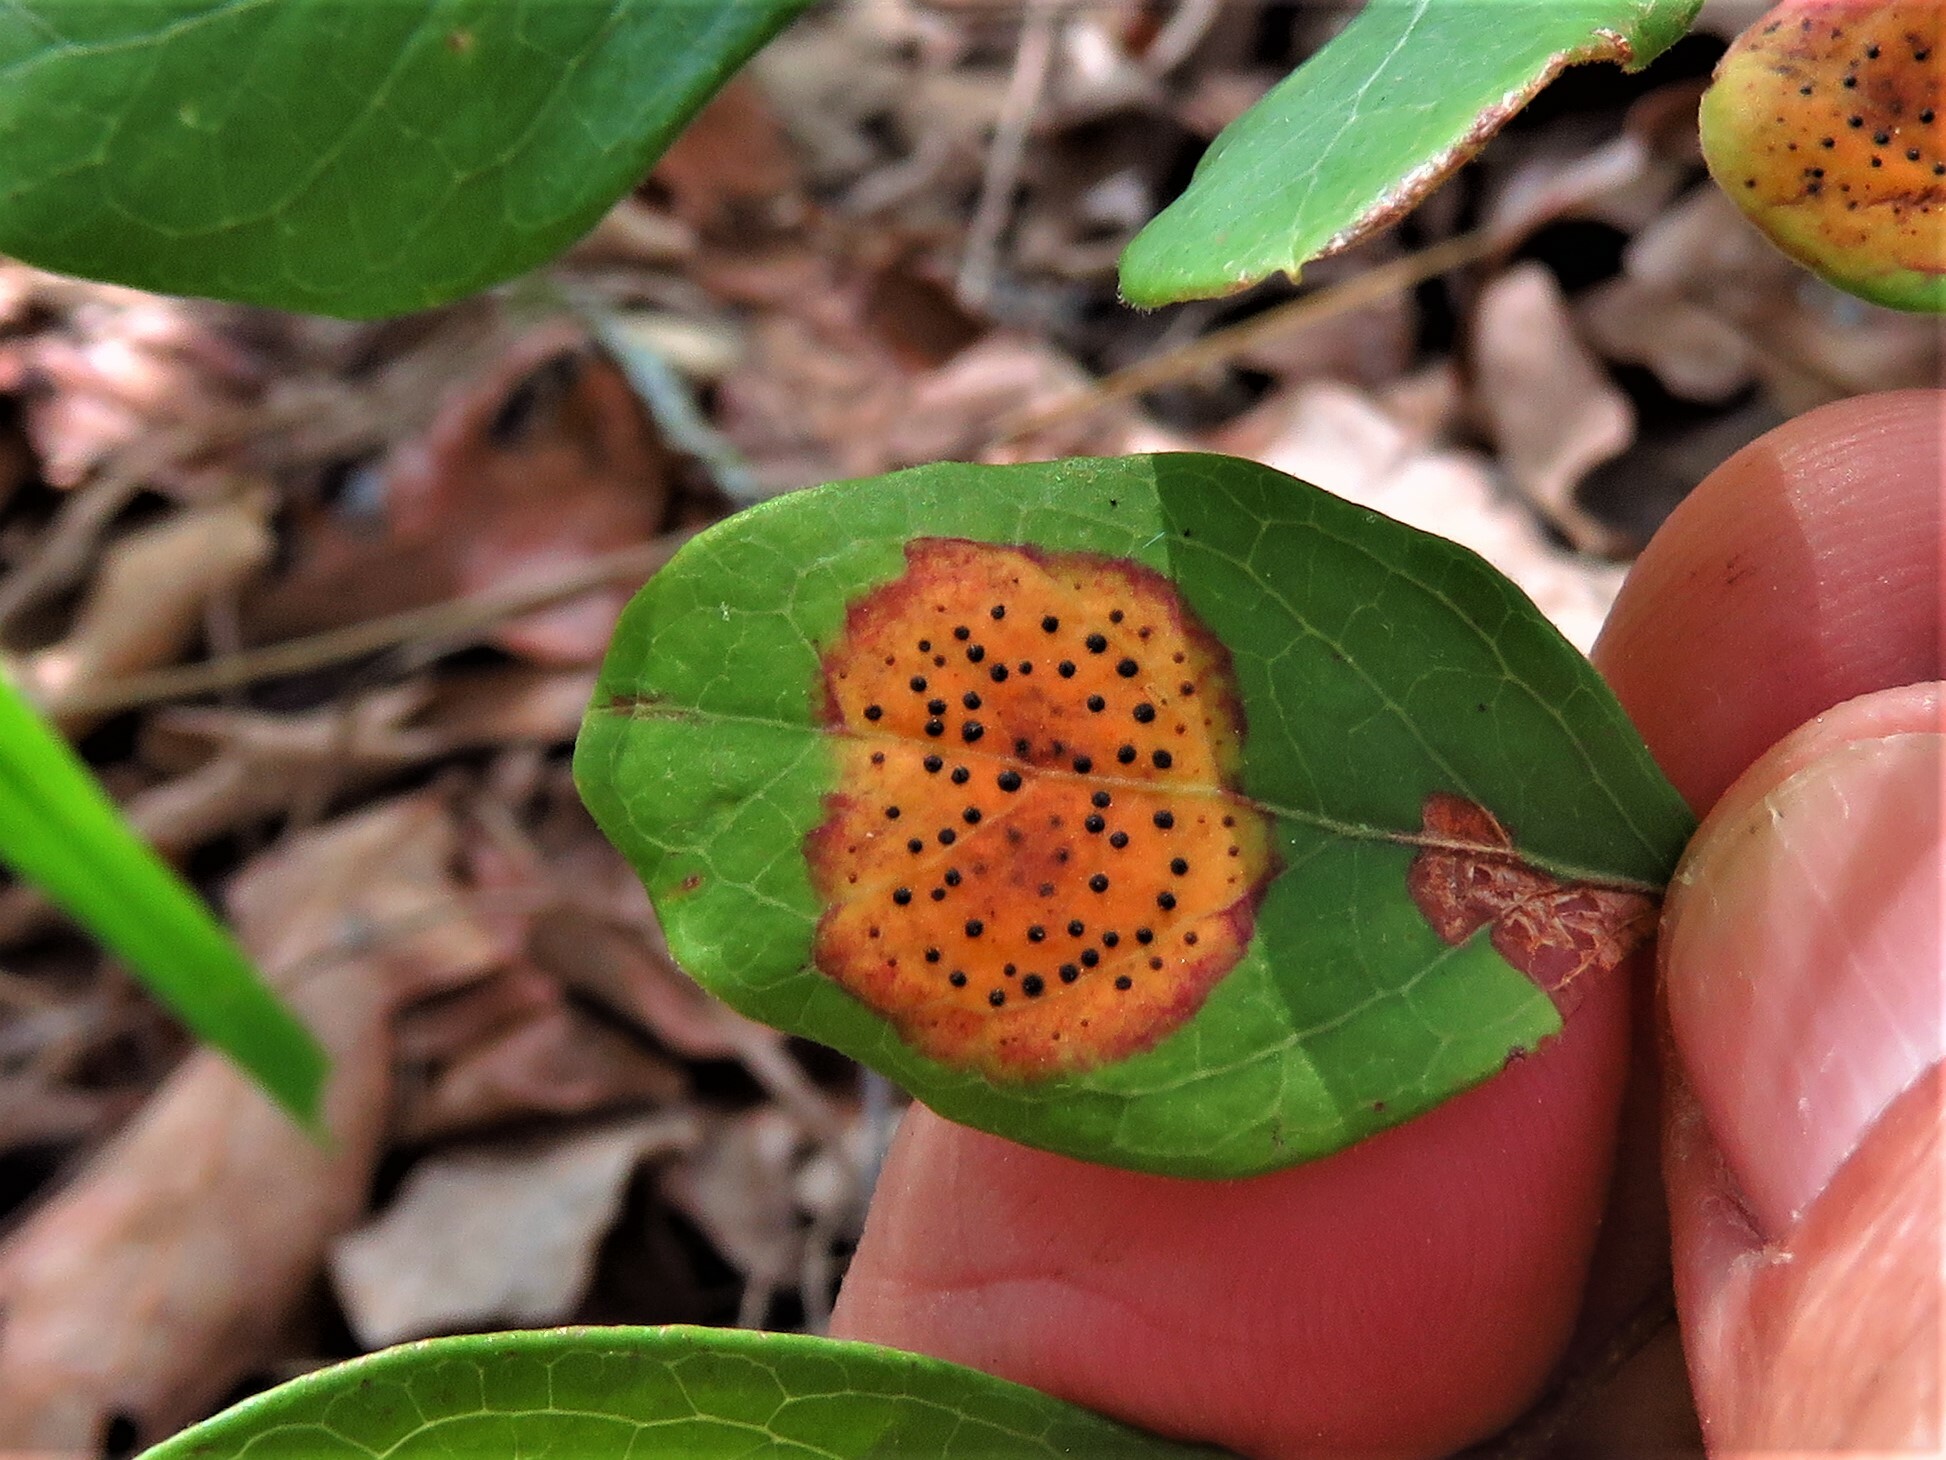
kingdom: Fungi
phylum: Ascomycota
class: Sordariomycetes
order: Phyllachorales
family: Phyllachoraceae
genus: Ophiodothella
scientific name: Ophiodothella angustissima
